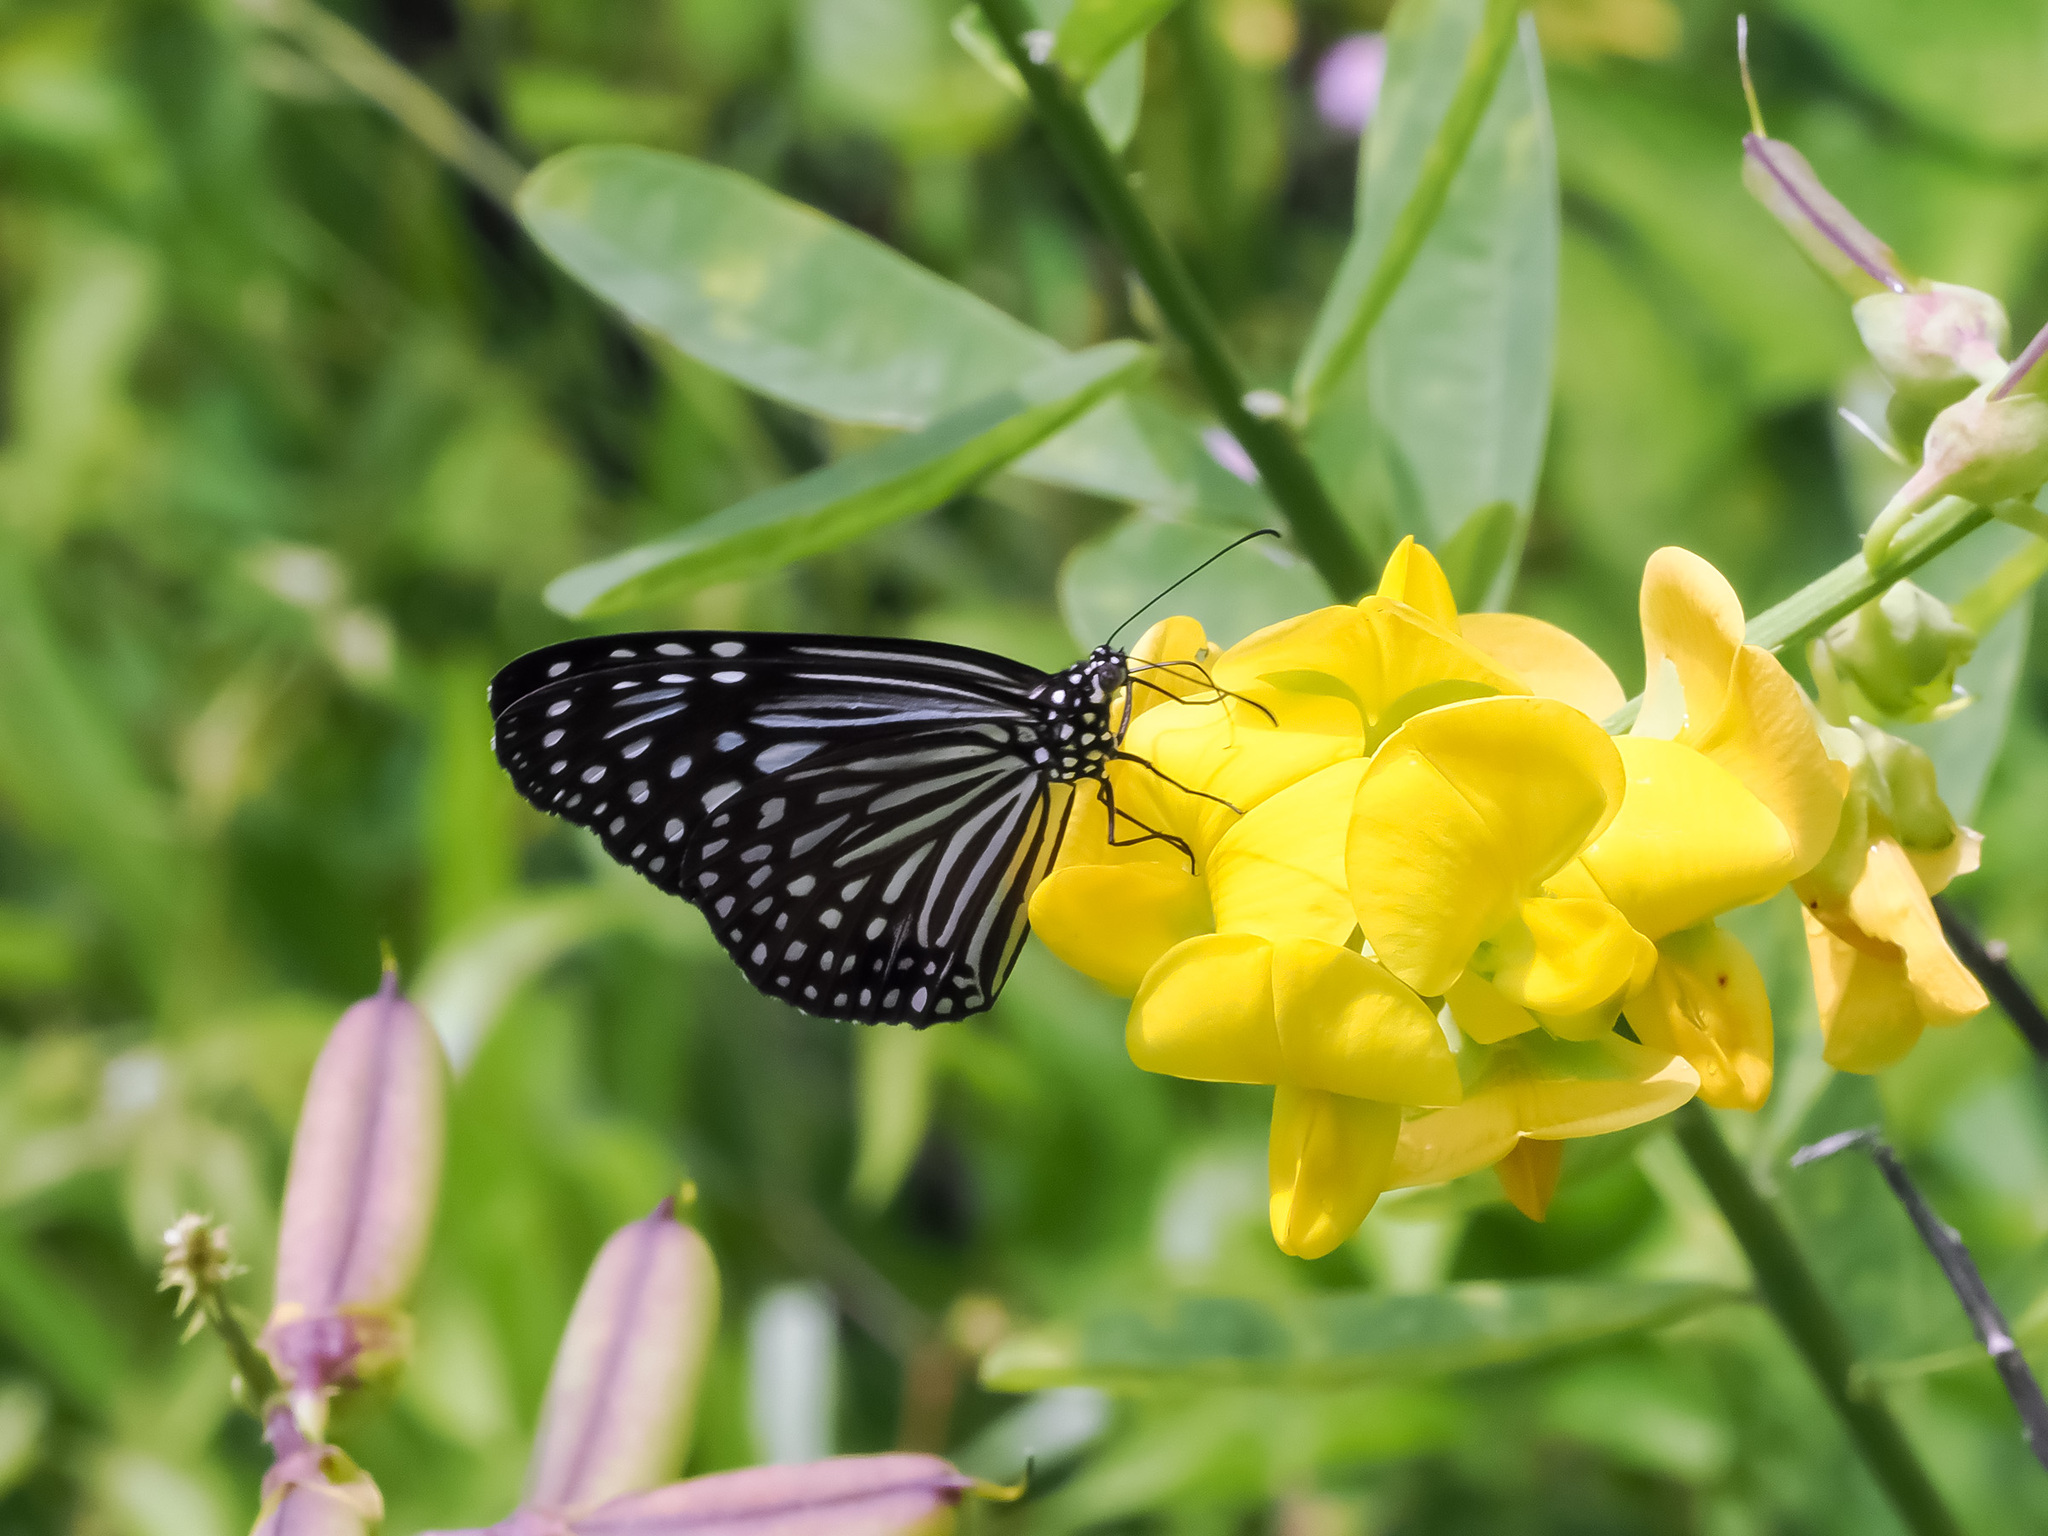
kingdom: Animalia
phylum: Arthropoda
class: Insecta
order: Lepidoptera
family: Nymphalidae
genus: Parantica
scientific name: Parantica agleoides
